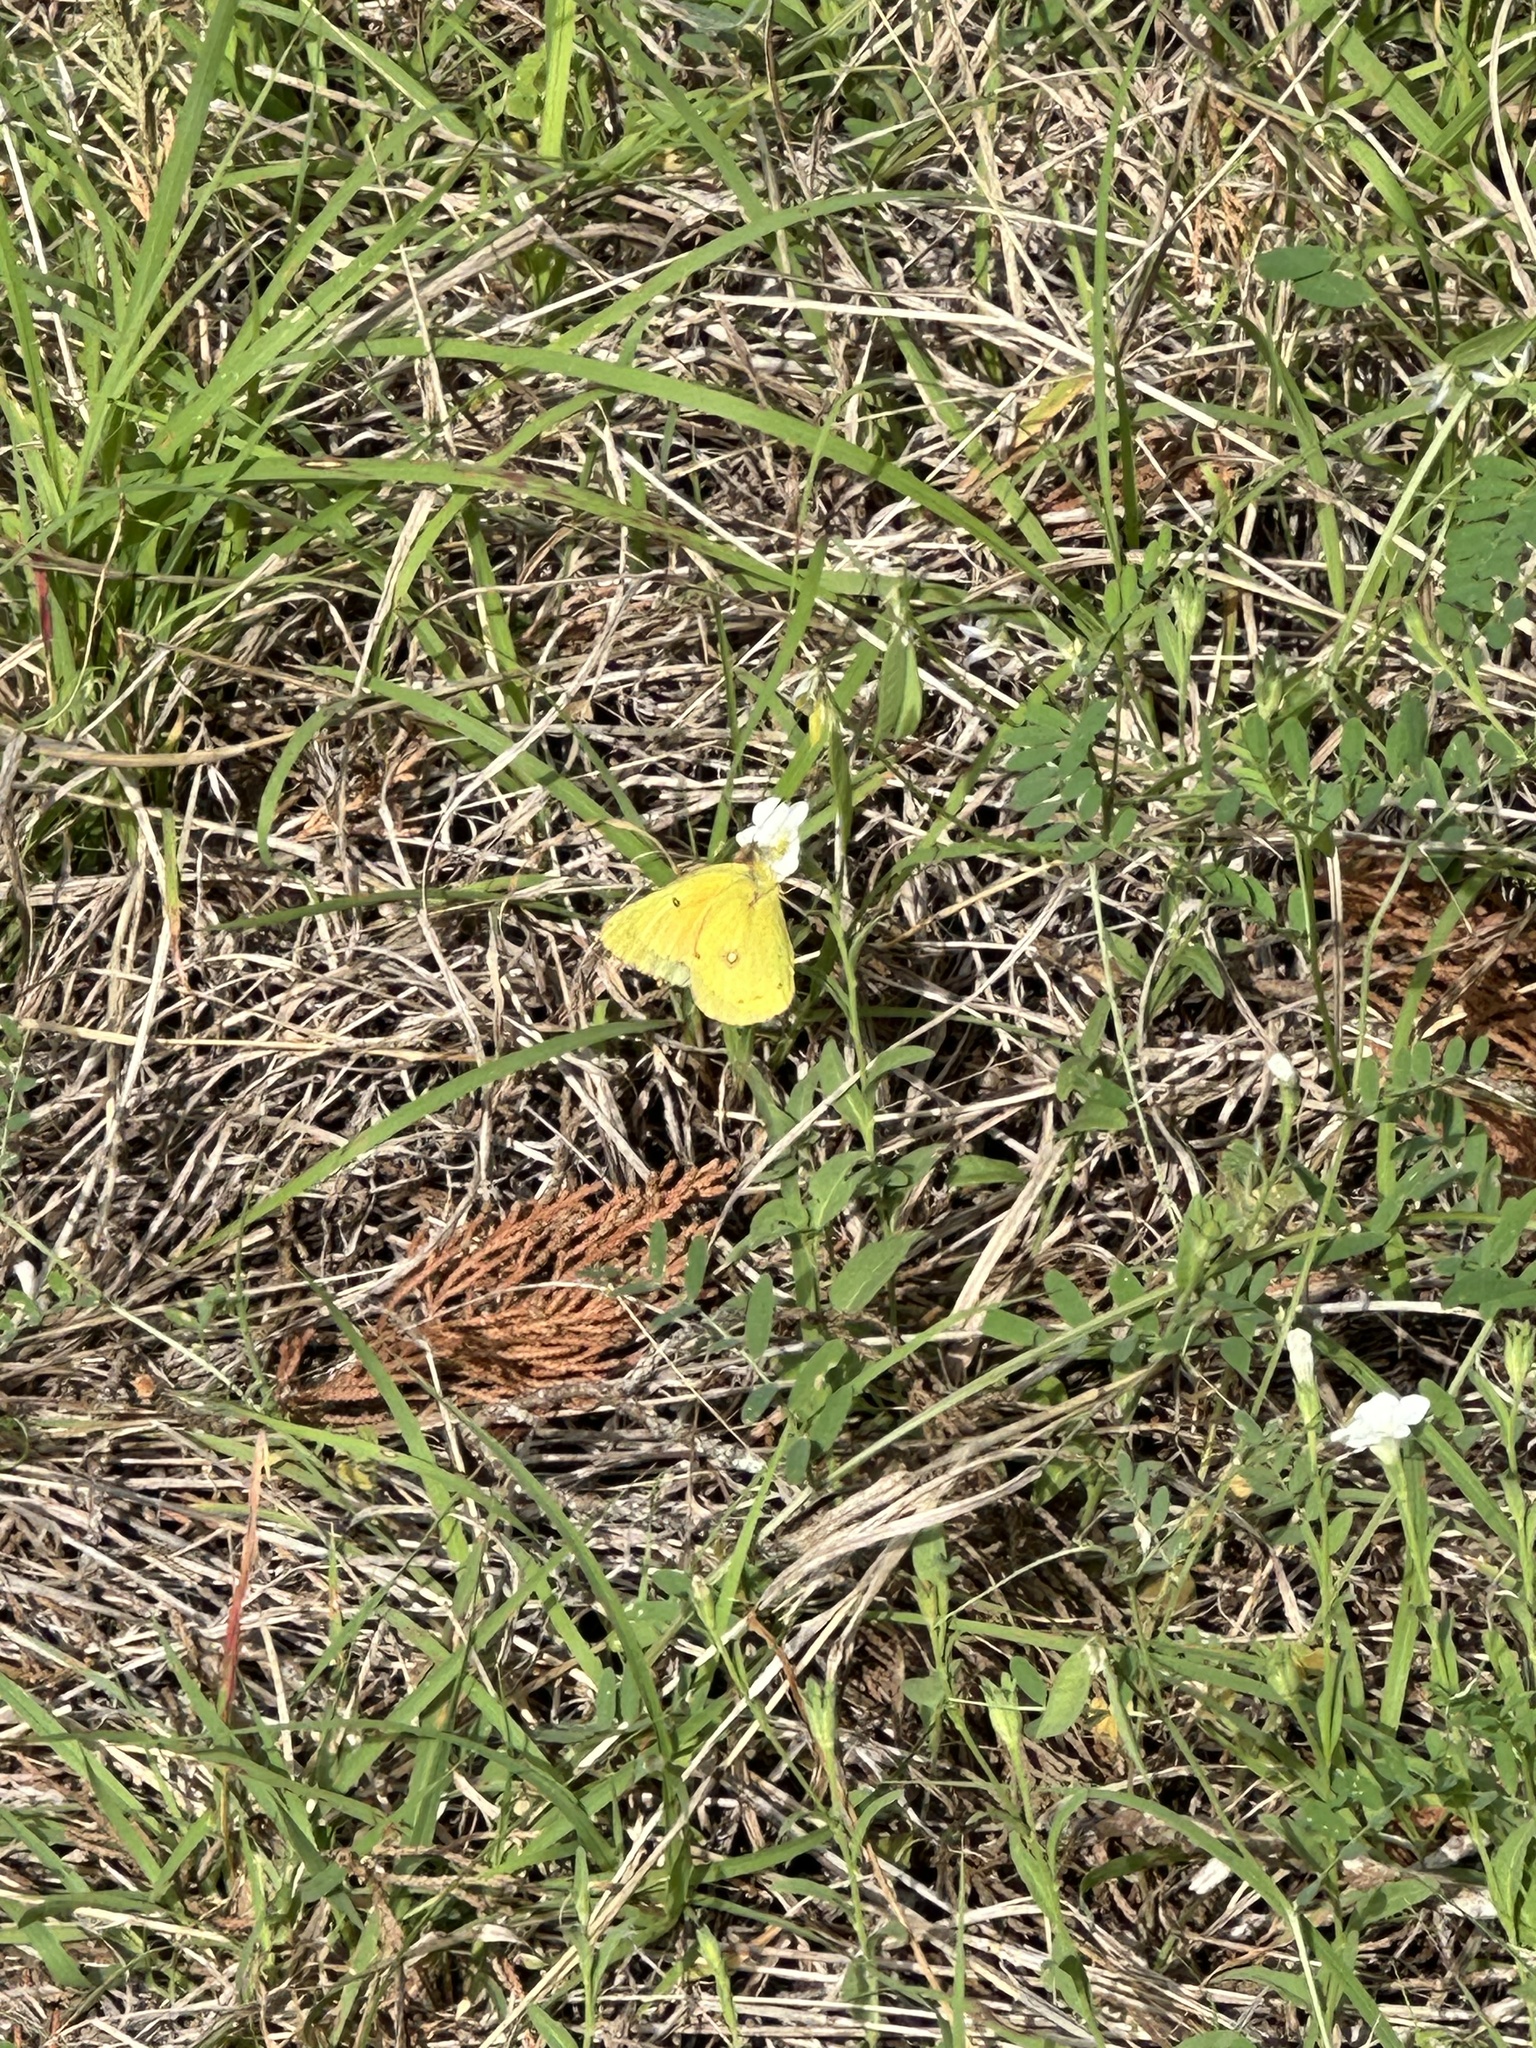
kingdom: Animalia
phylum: Arthropoda
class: Insecta
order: Lepidoptera
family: Pieridae
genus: Colias
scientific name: Colias eurytheme
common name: Alfalfa butterfly
